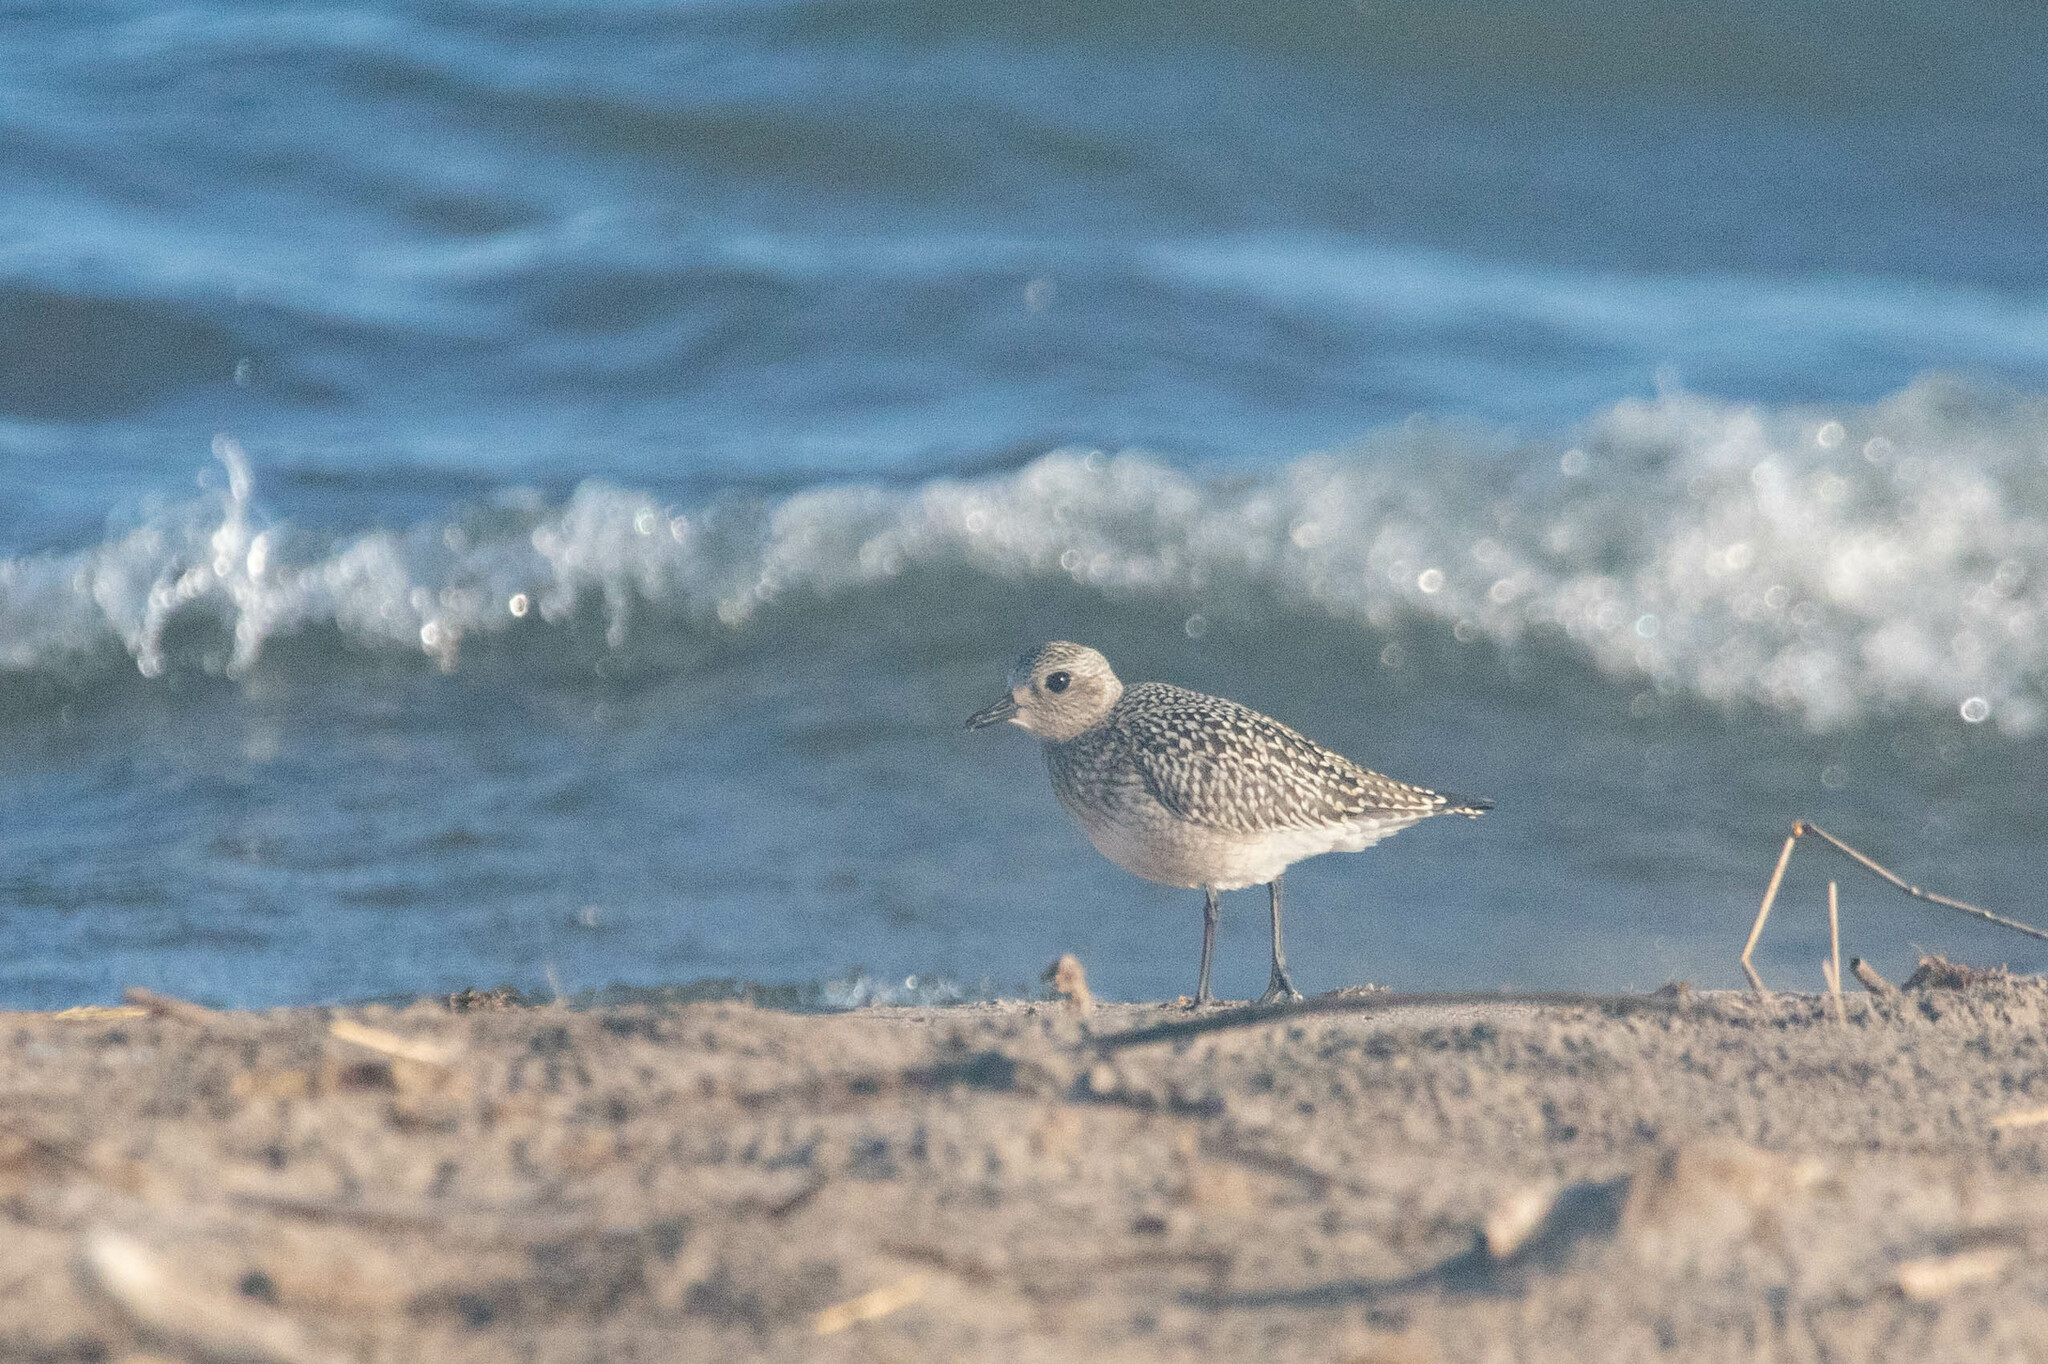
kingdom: Animalia
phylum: Chordata
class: Aves
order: Charadriiformes
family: Charadriidae
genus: Pluvialis
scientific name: Pluvialis squatarola
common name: Grey plover
